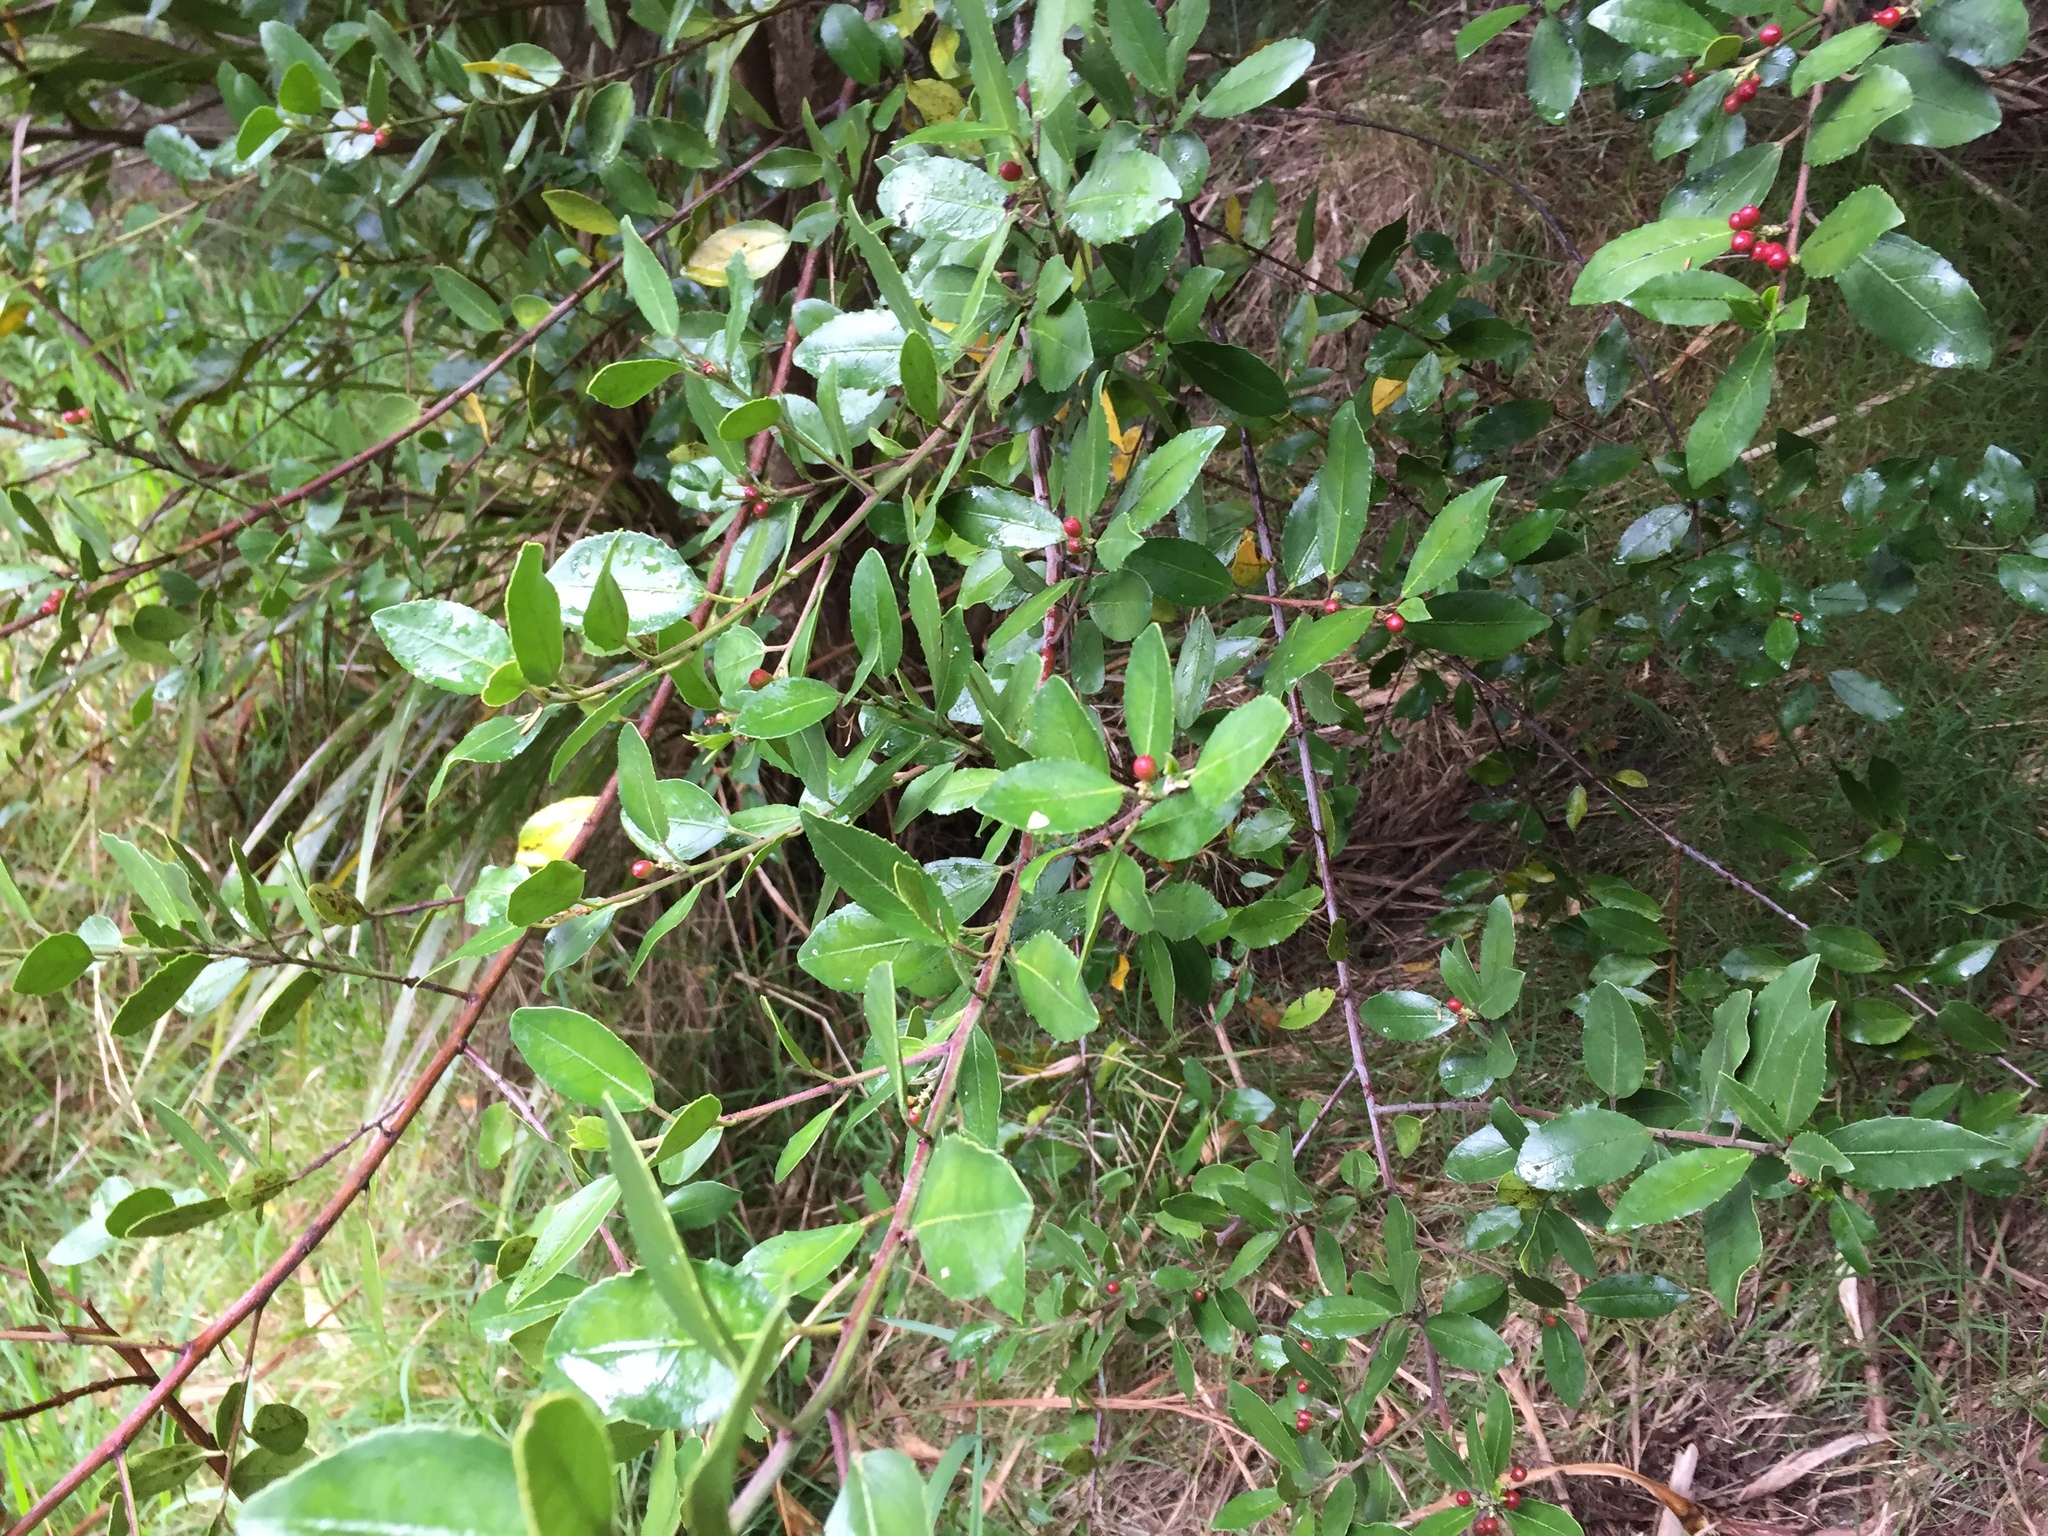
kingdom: Plantae
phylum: Tracheophyta
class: Magnoliopsida
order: Rosales
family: Rhamnaceae
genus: Rhamnus
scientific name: Rhamnus alaternus
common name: Mediterranean buckthorn
